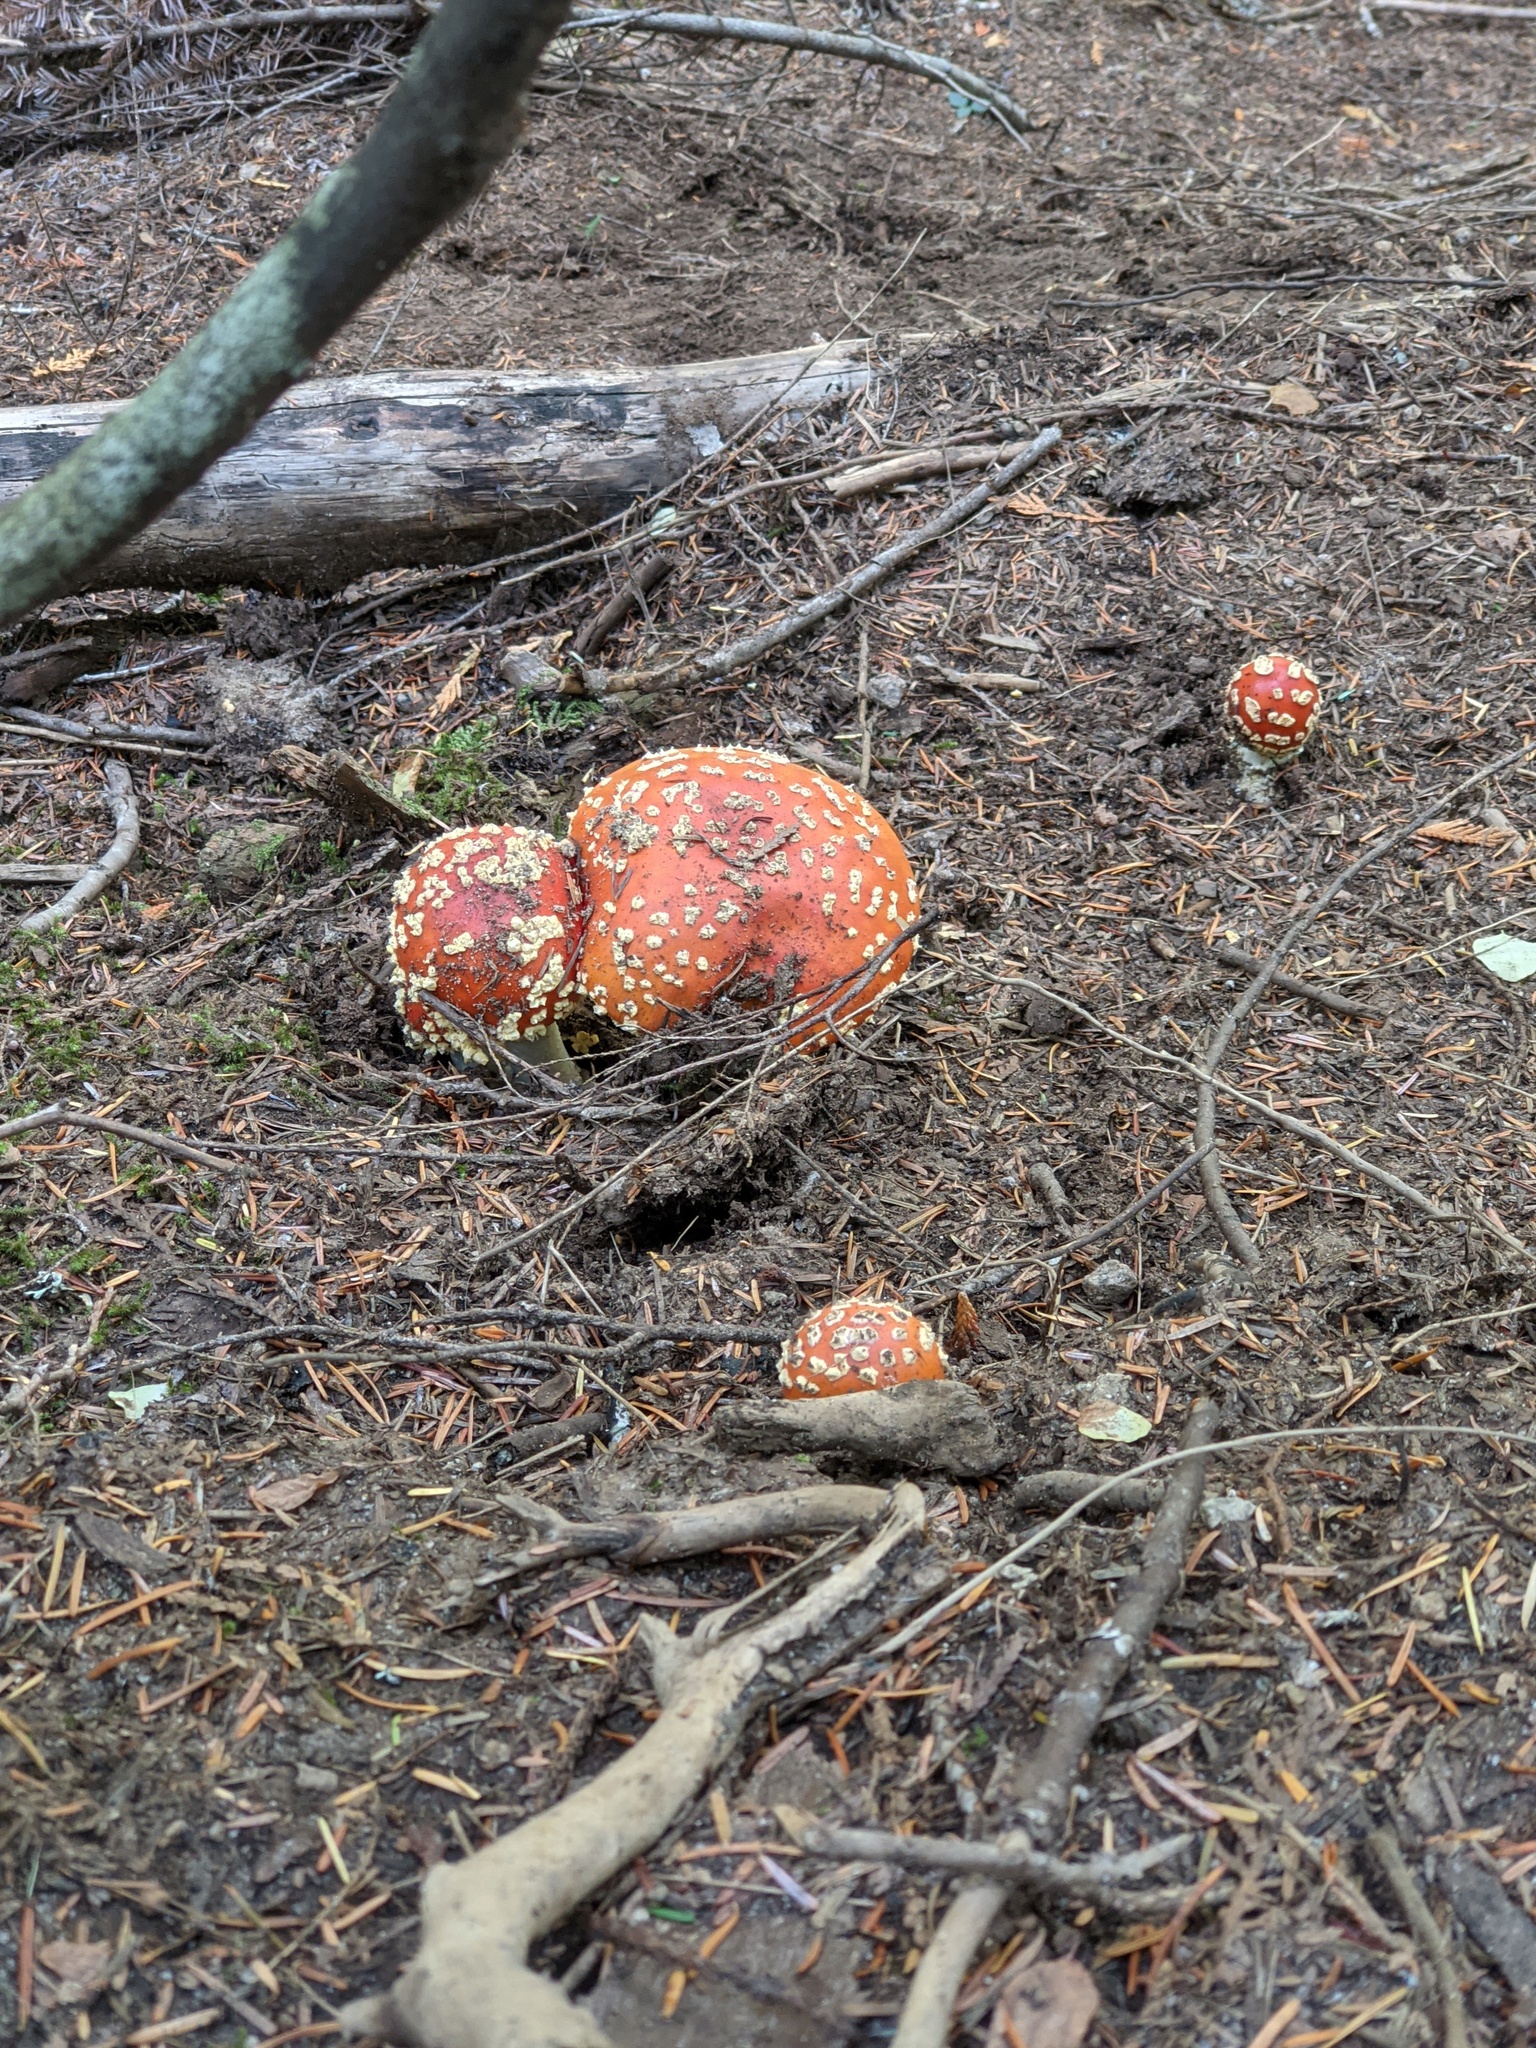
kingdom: Fungi
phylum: Basidiomycota
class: Agaricomycetes
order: Agaricales
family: Amanitaceae
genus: Amanita
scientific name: Amanita muscaria
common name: Fly agaric
